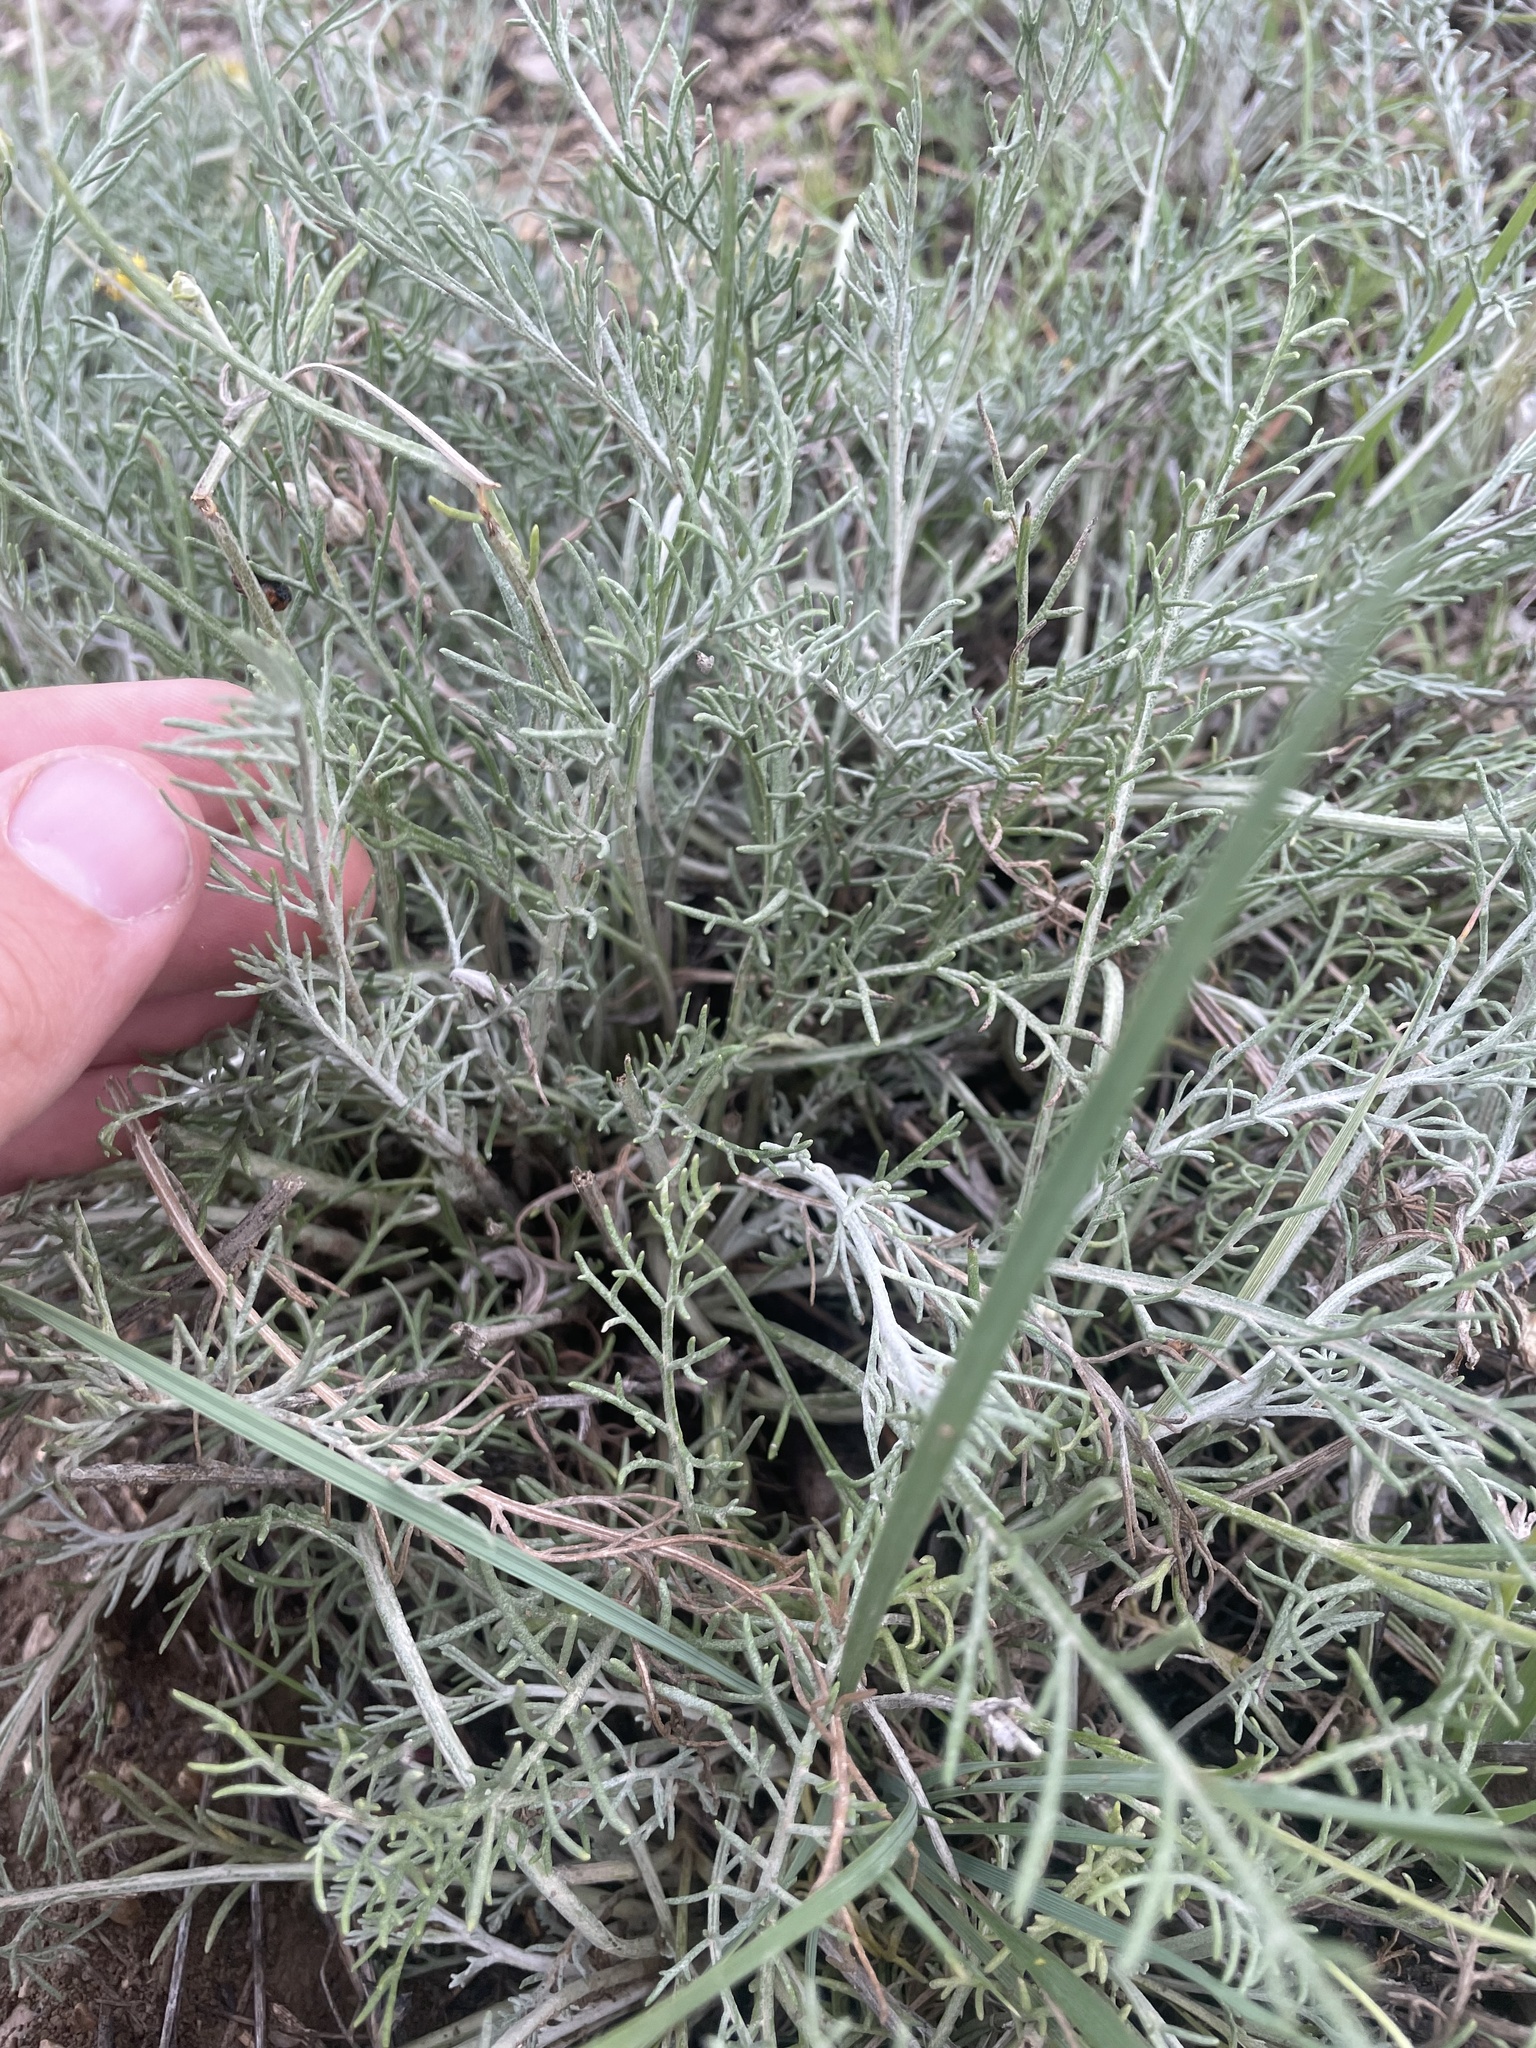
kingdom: Plantae
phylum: Tracheophyta
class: Magnoliopsida
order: Asterales
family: Asteraceae
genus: Hymenopappus
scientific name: Hymenopappus filifolius
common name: Columbia cutleaf
